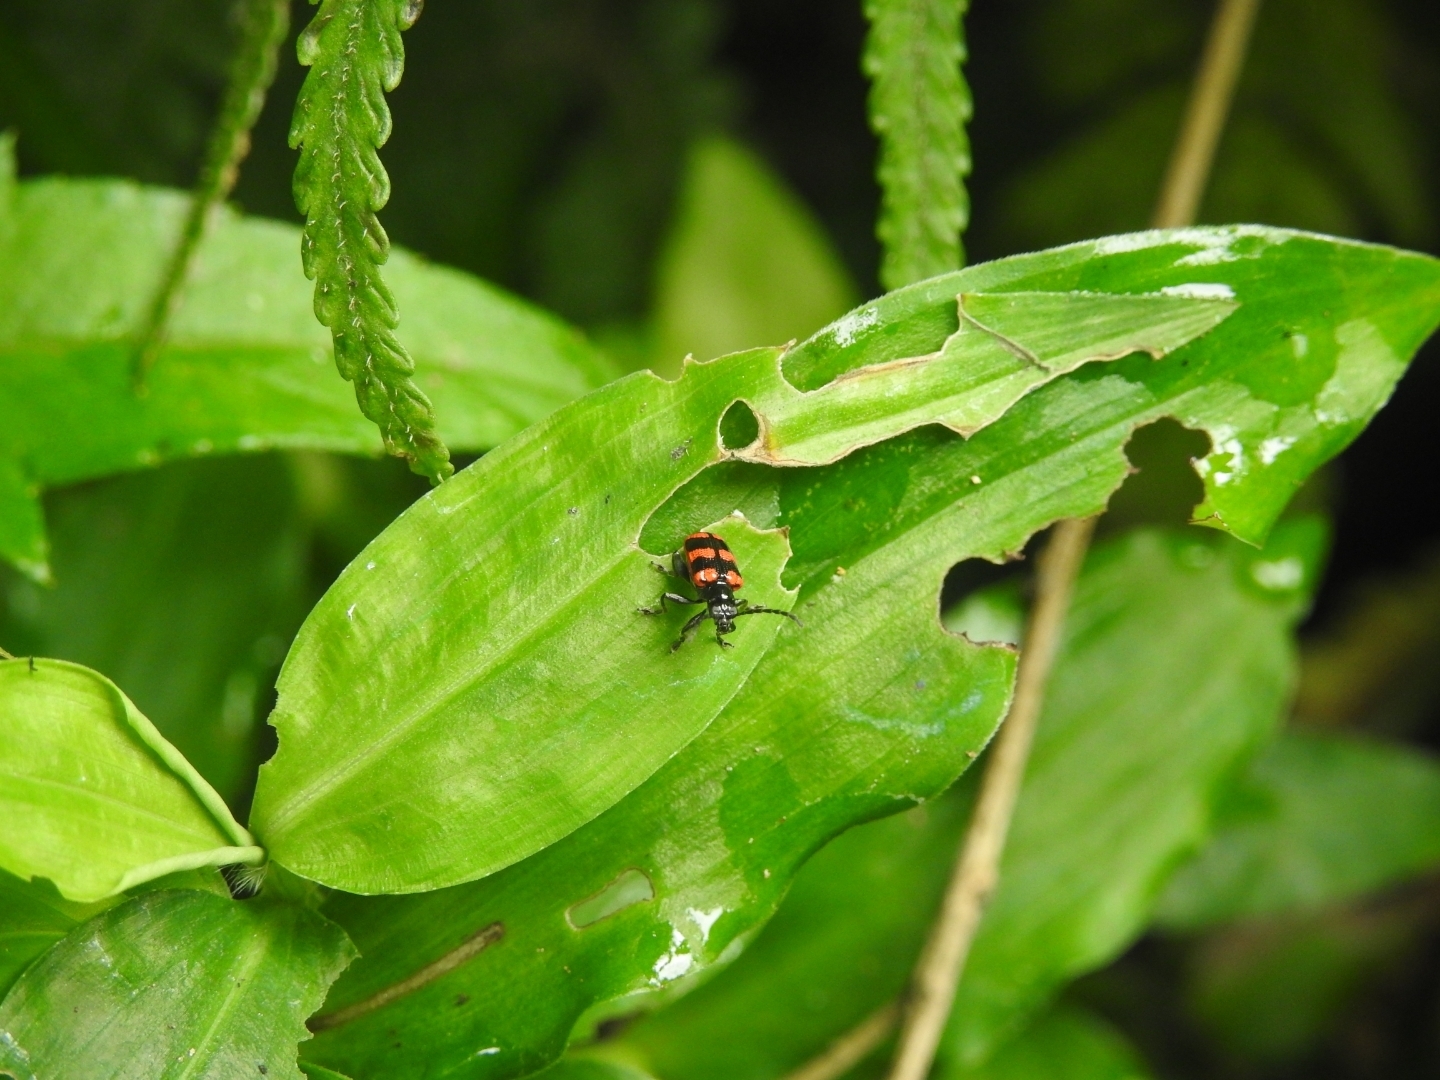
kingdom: Animalia
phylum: Arthropoda
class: Insecta
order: Coleoptera
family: Chrysomelidae
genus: Neolema
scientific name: Neolema
